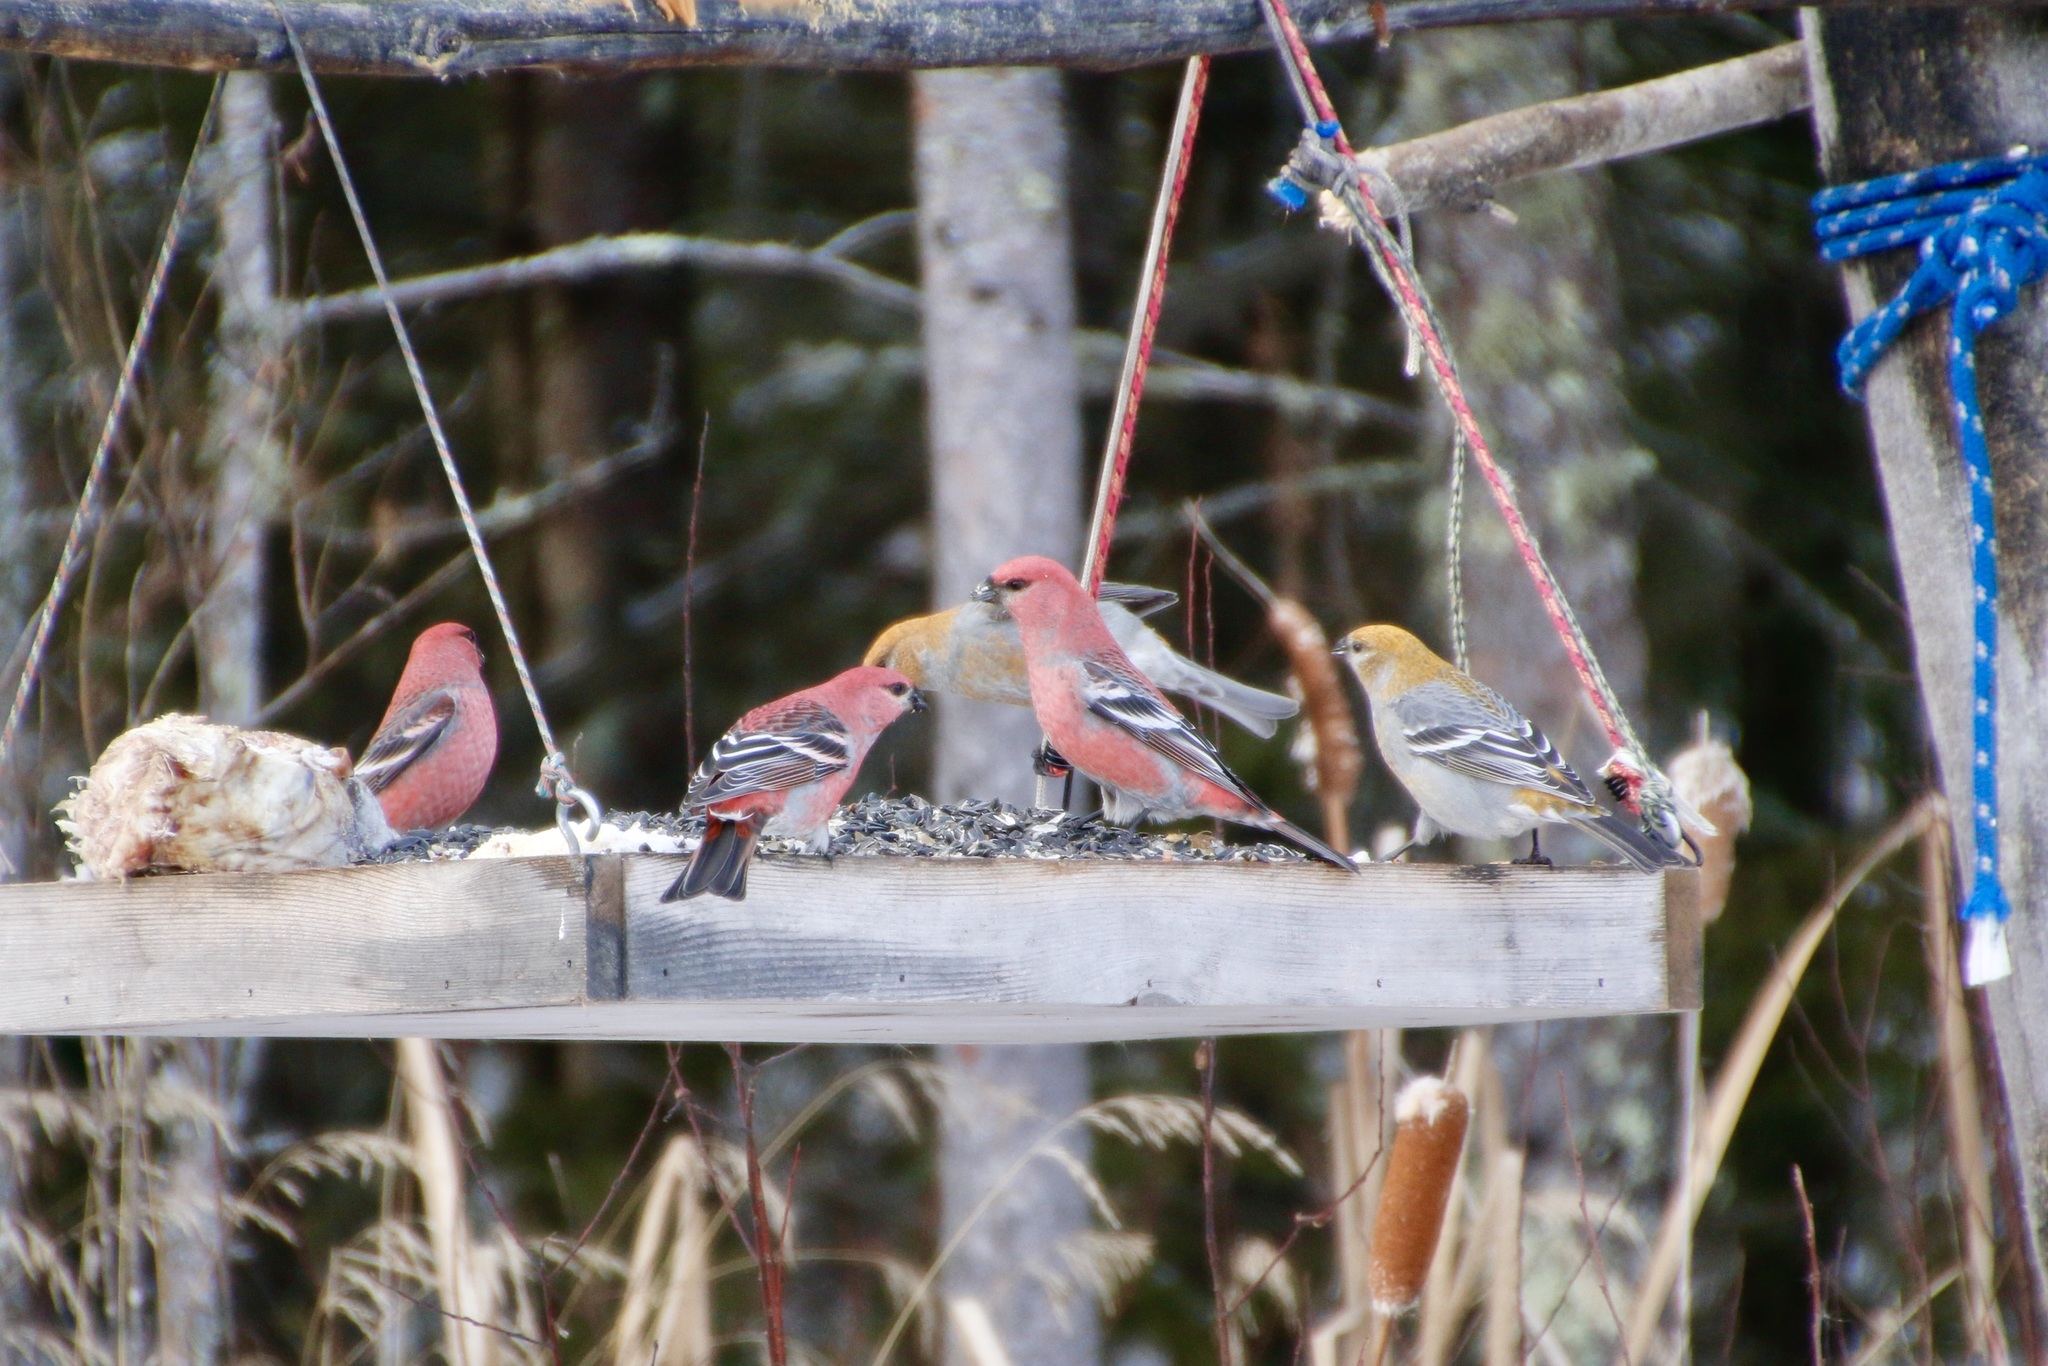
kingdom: Animalia
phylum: Chordata
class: Aves
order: Passeriformes
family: Fringillidae
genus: Pinicola
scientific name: Pinicola enucleator
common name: Pine grosbeak
